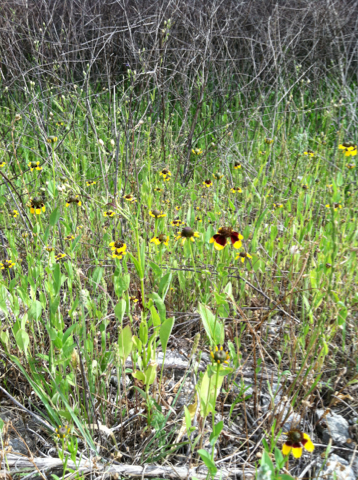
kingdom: Plantae
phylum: Tracheophyta
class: Magnoliopsida
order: Asterales
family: Asteraceae
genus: Rudbeckia
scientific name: Rudbeckia amplexicaulis
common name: Clasping-leaf coneflower
